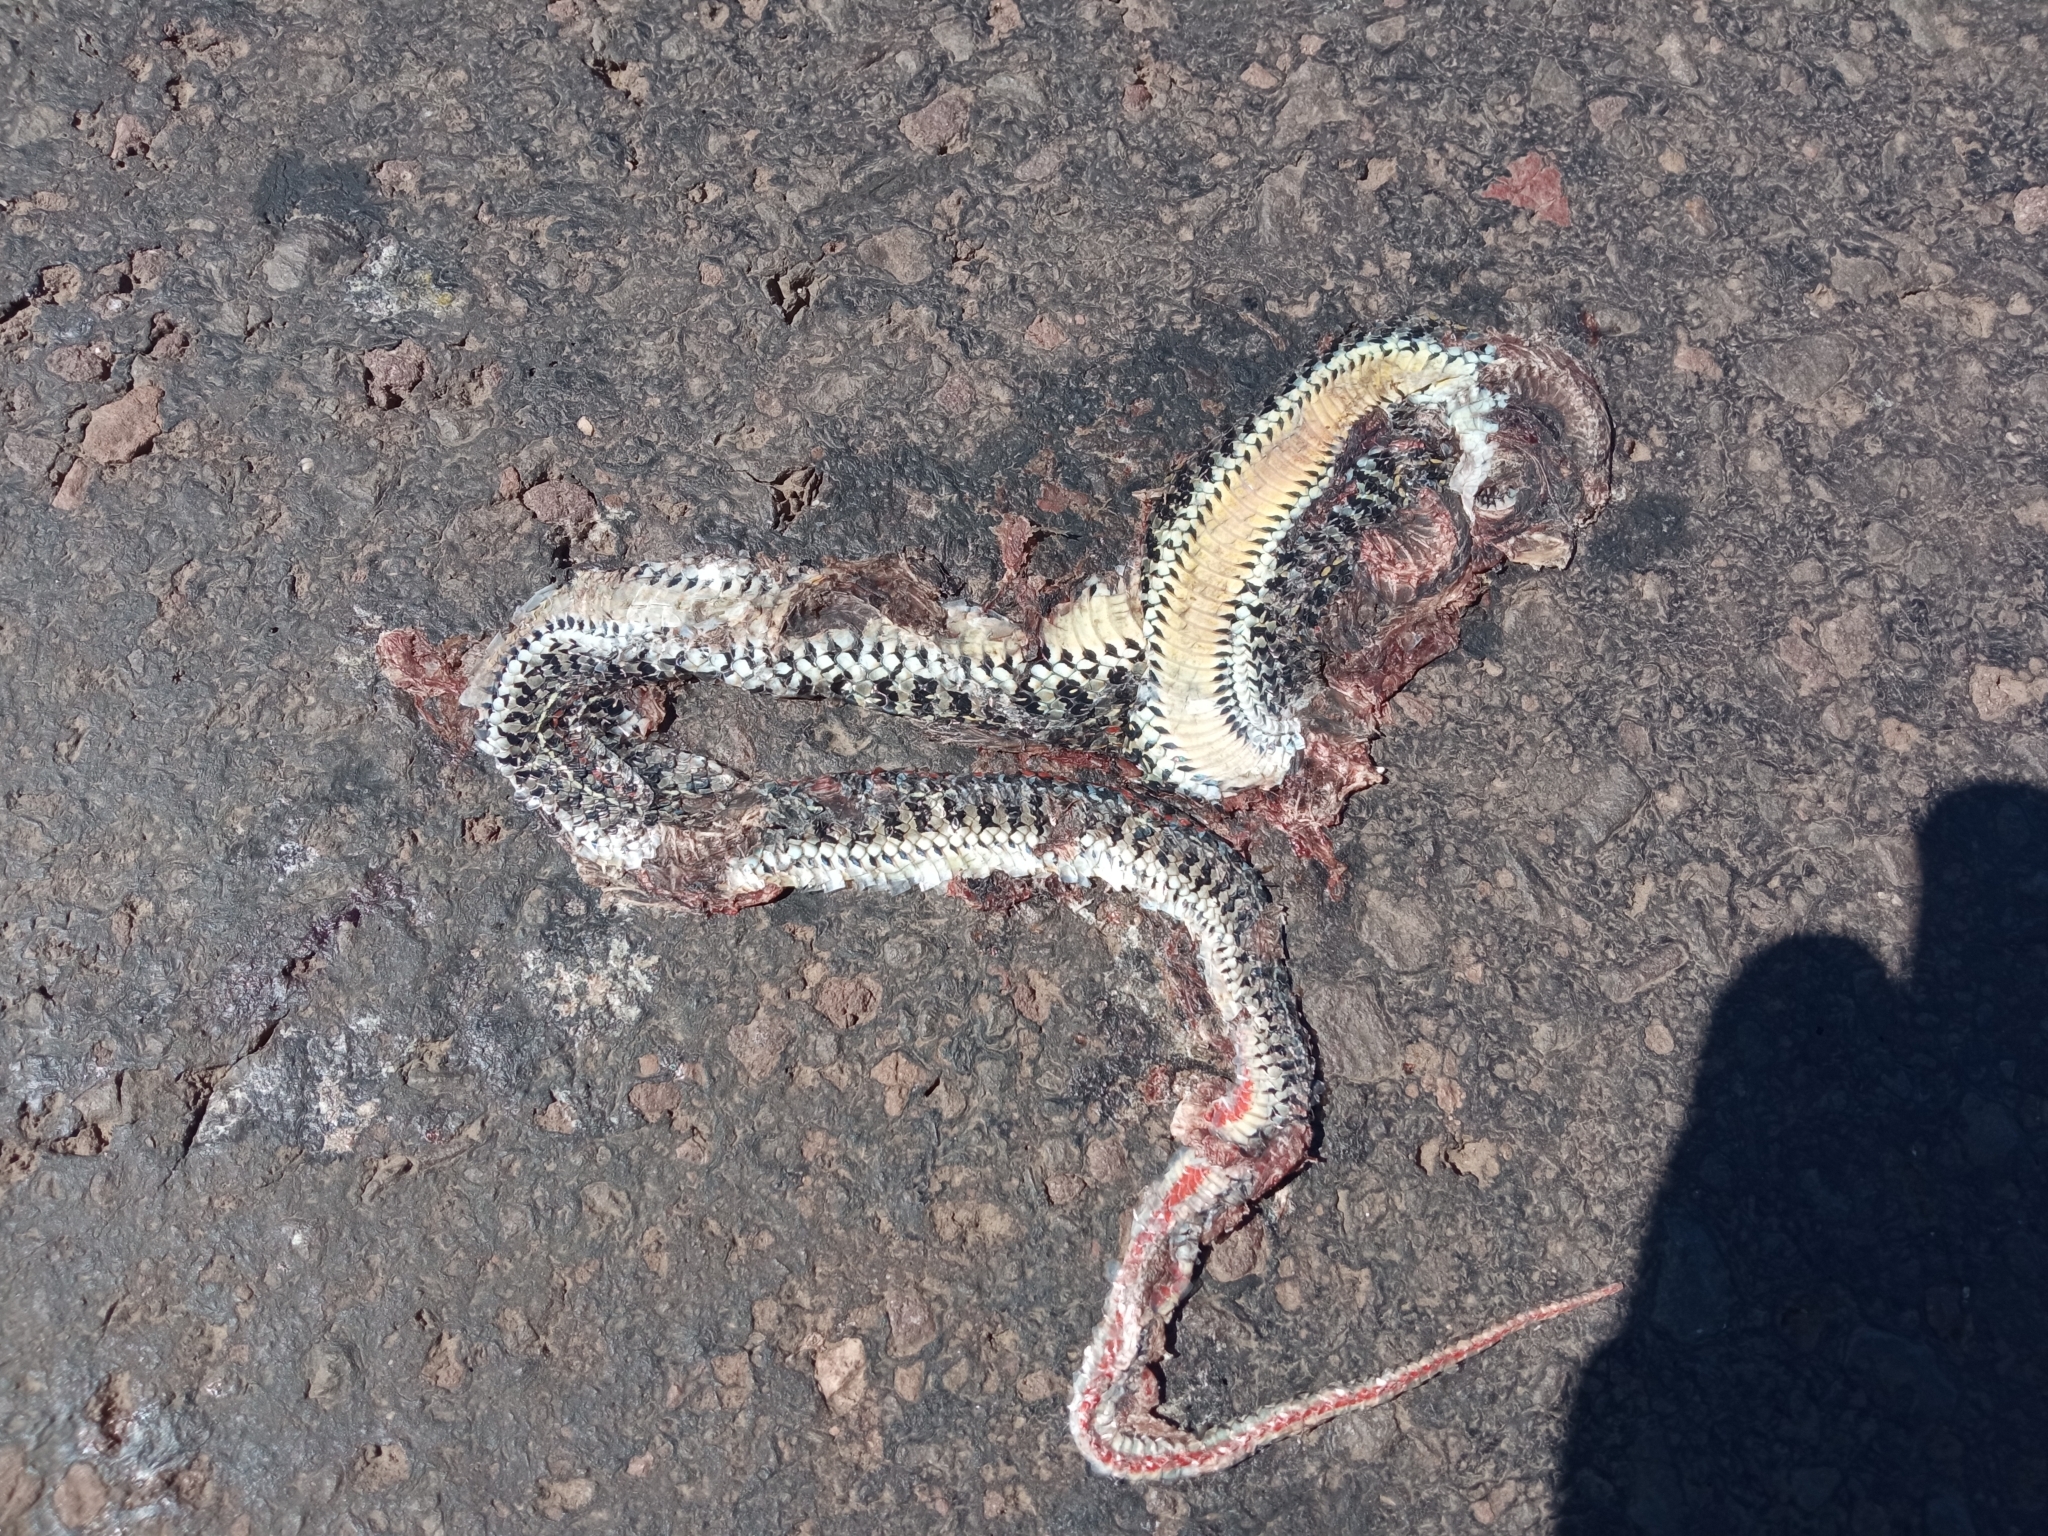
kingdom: Animalia
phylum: Chordata
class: Squamata
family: Colubridae
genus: Lygophis
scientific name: Lygophis anomalus
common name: English common name not available
